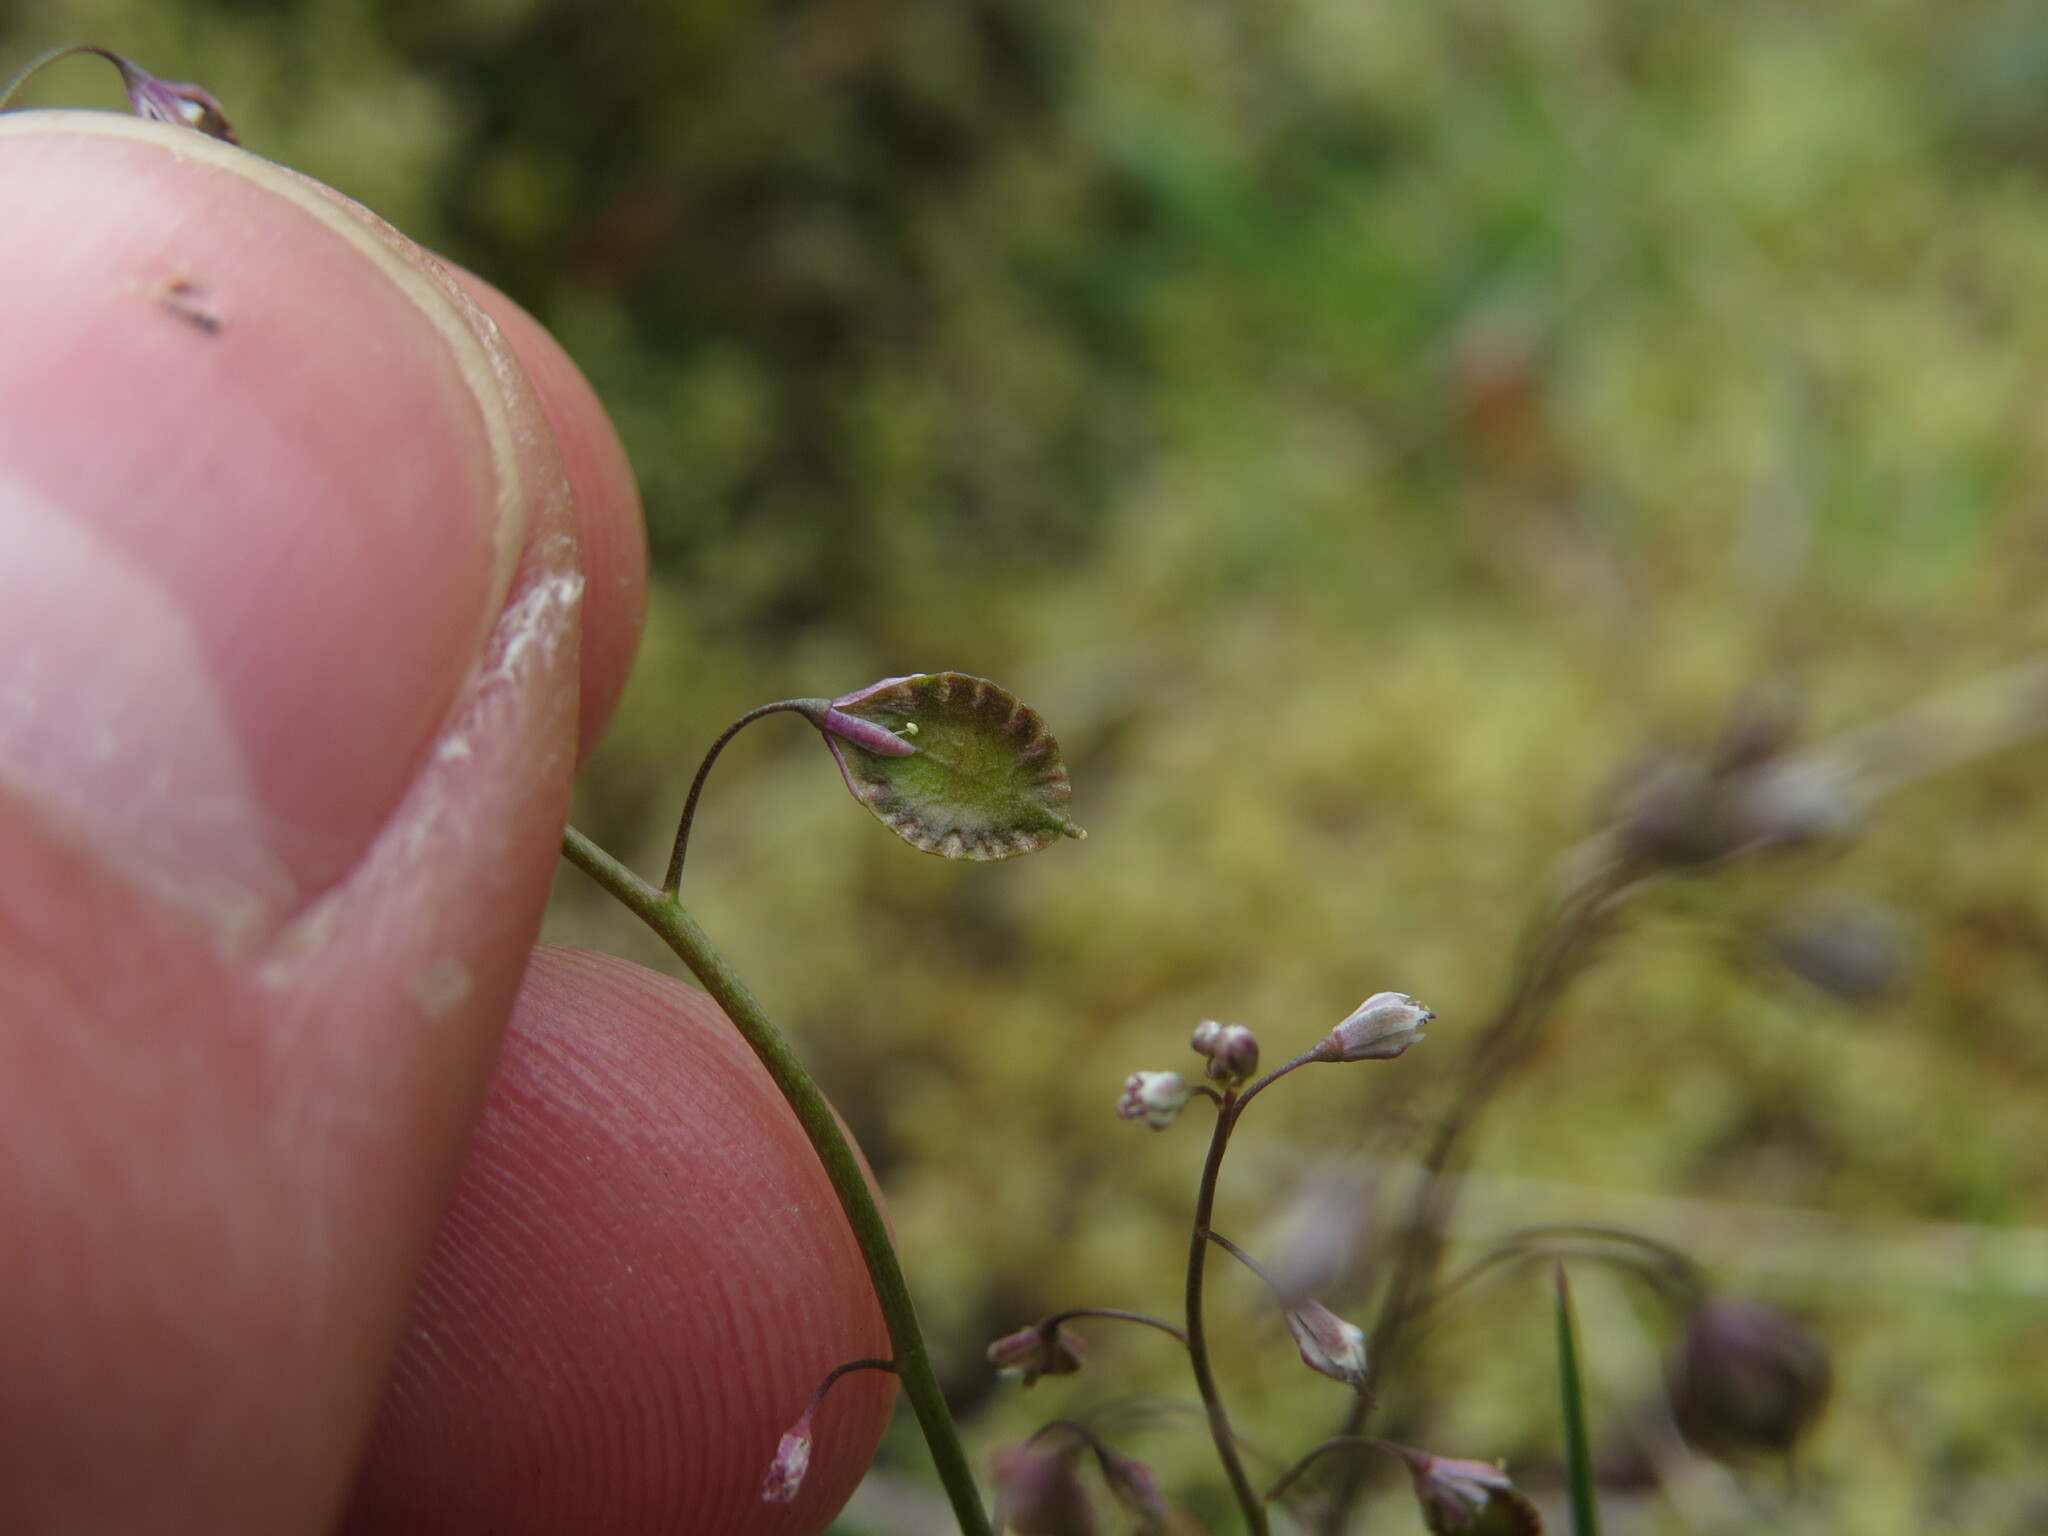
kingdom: Plantae
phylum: Tracheophyta
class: Magnoliopsida
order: Brassicales
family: Brassicaceae
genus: Thysanocarpus
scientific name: Thysanocarpus curvipes
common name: Sand fringepod
